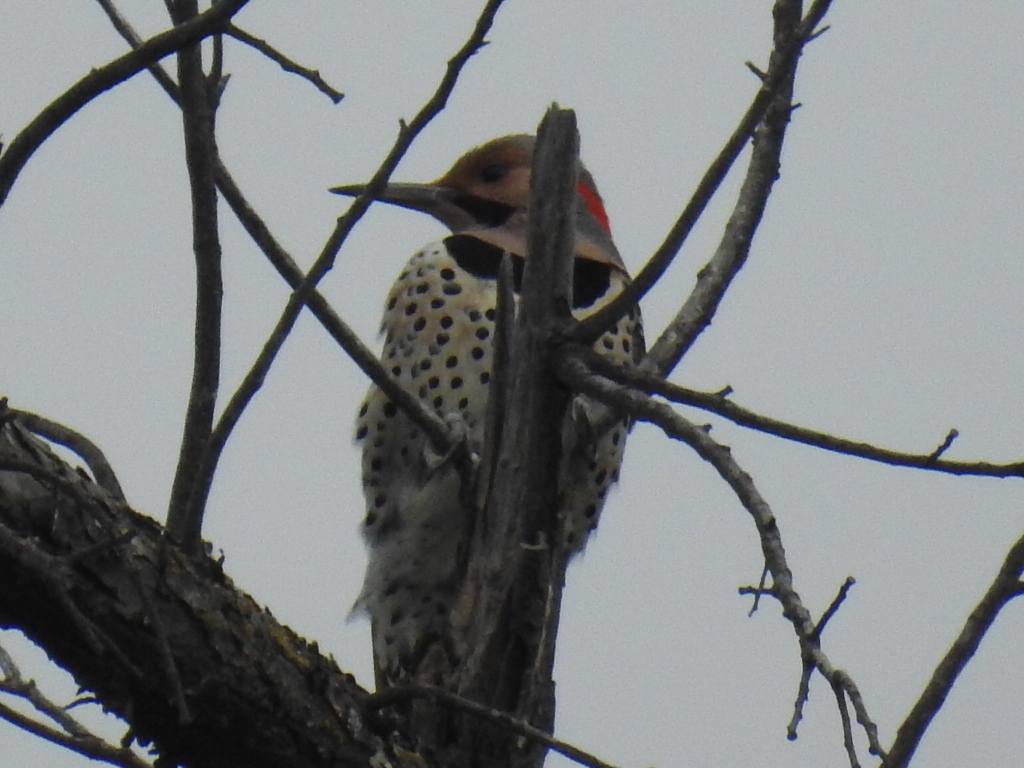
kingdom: Animalia
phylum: Chordata
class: Aves
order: Piciformes
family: Picidae
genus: Colaptes
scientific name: Colaptes auratus
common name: Northern flicker
